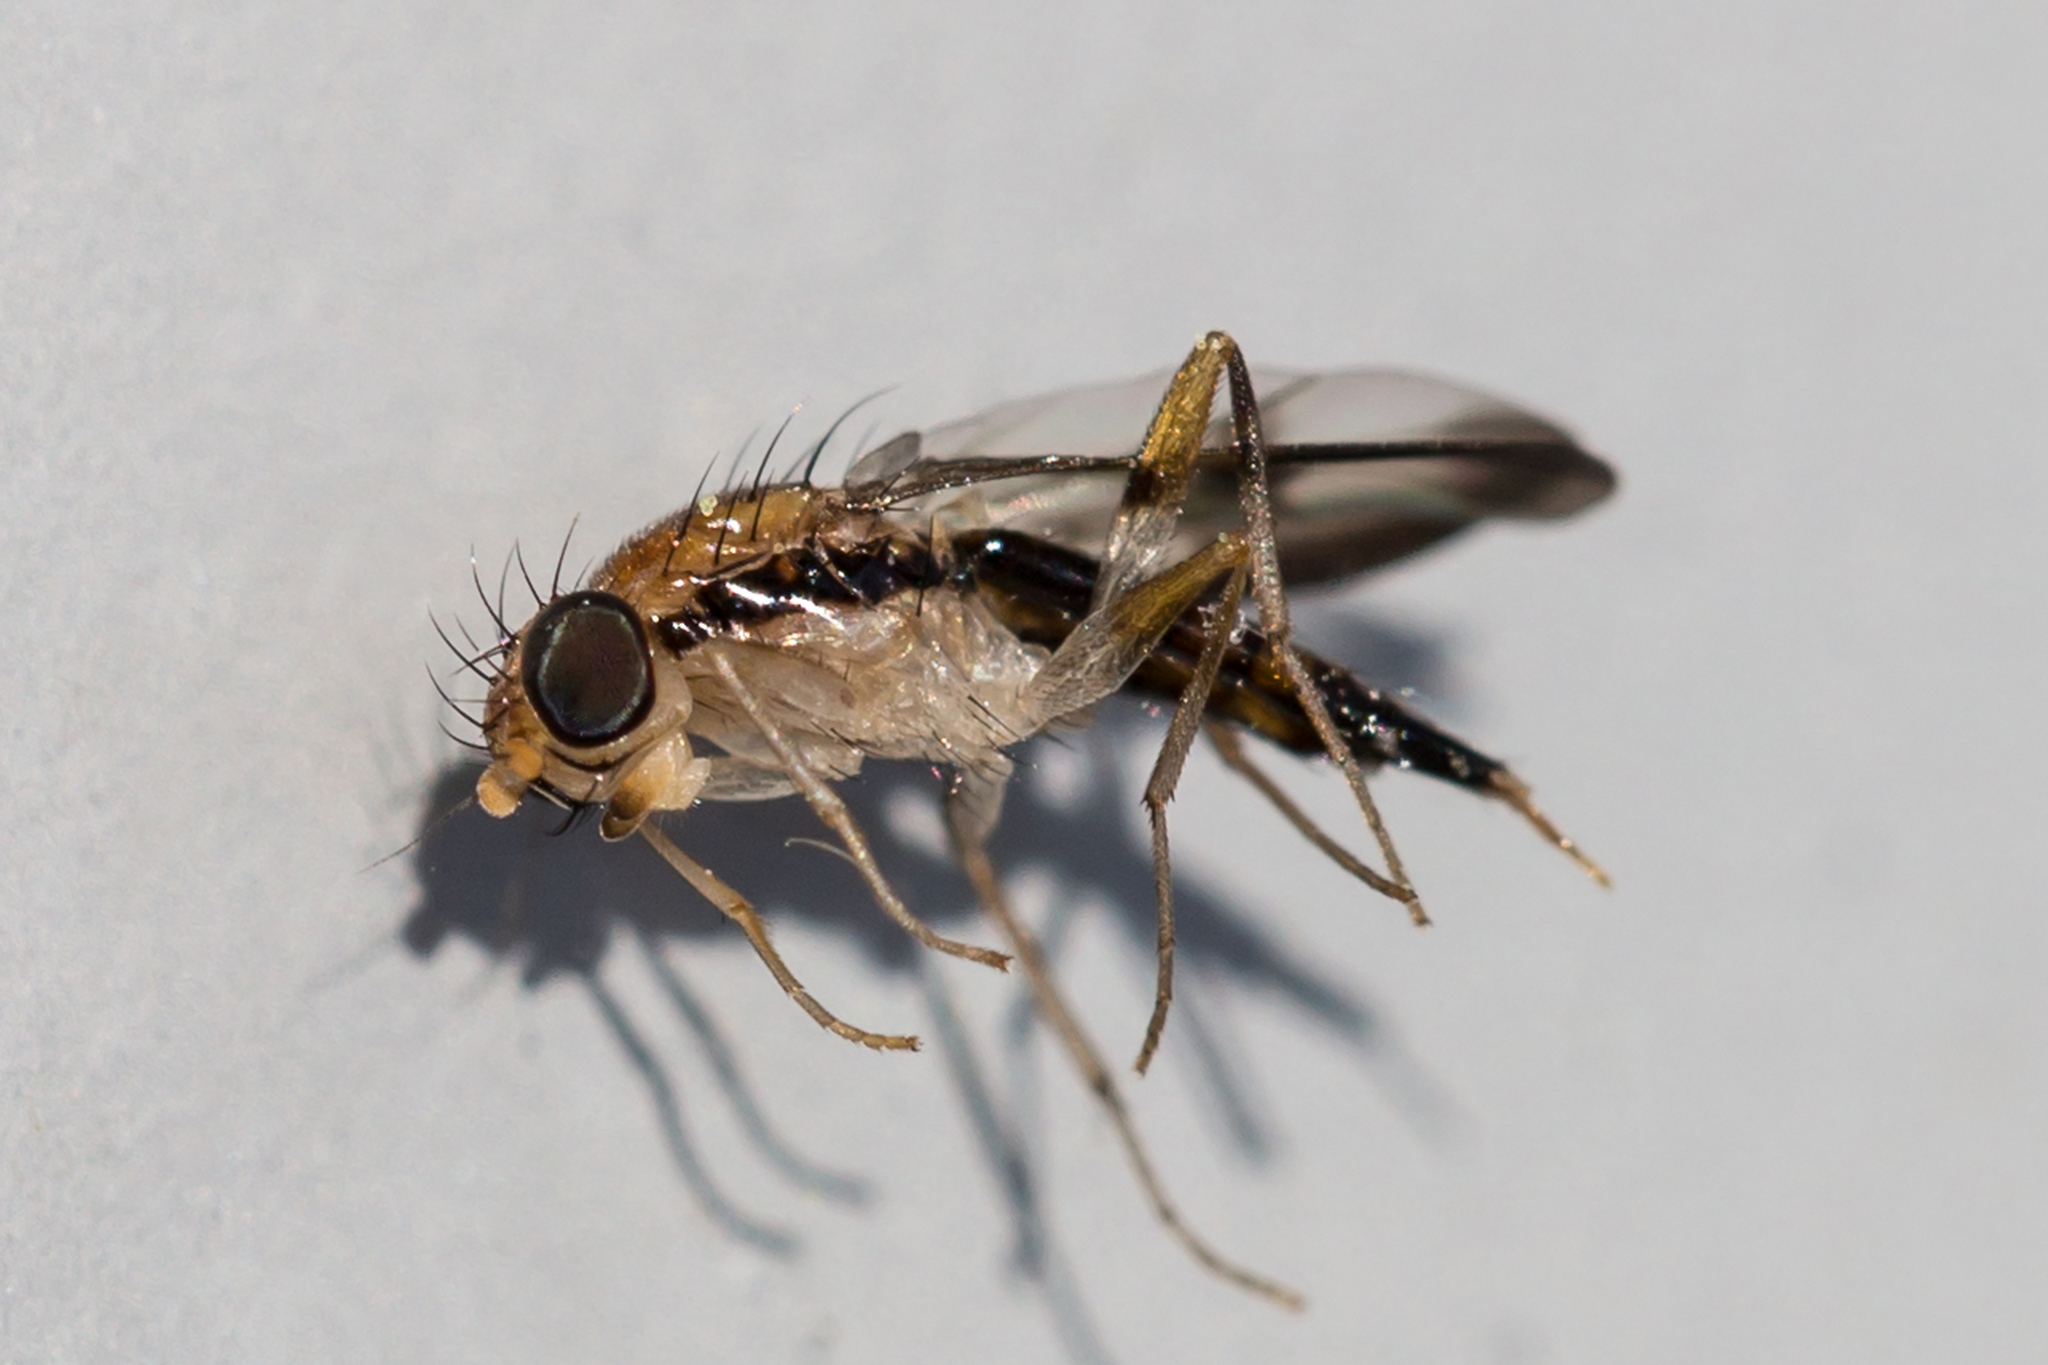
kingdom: Animalia
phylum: Arthropoda
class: Insecta
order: Diptera
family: Clusiidae
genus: Clusia
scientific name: Clusia czernyi
